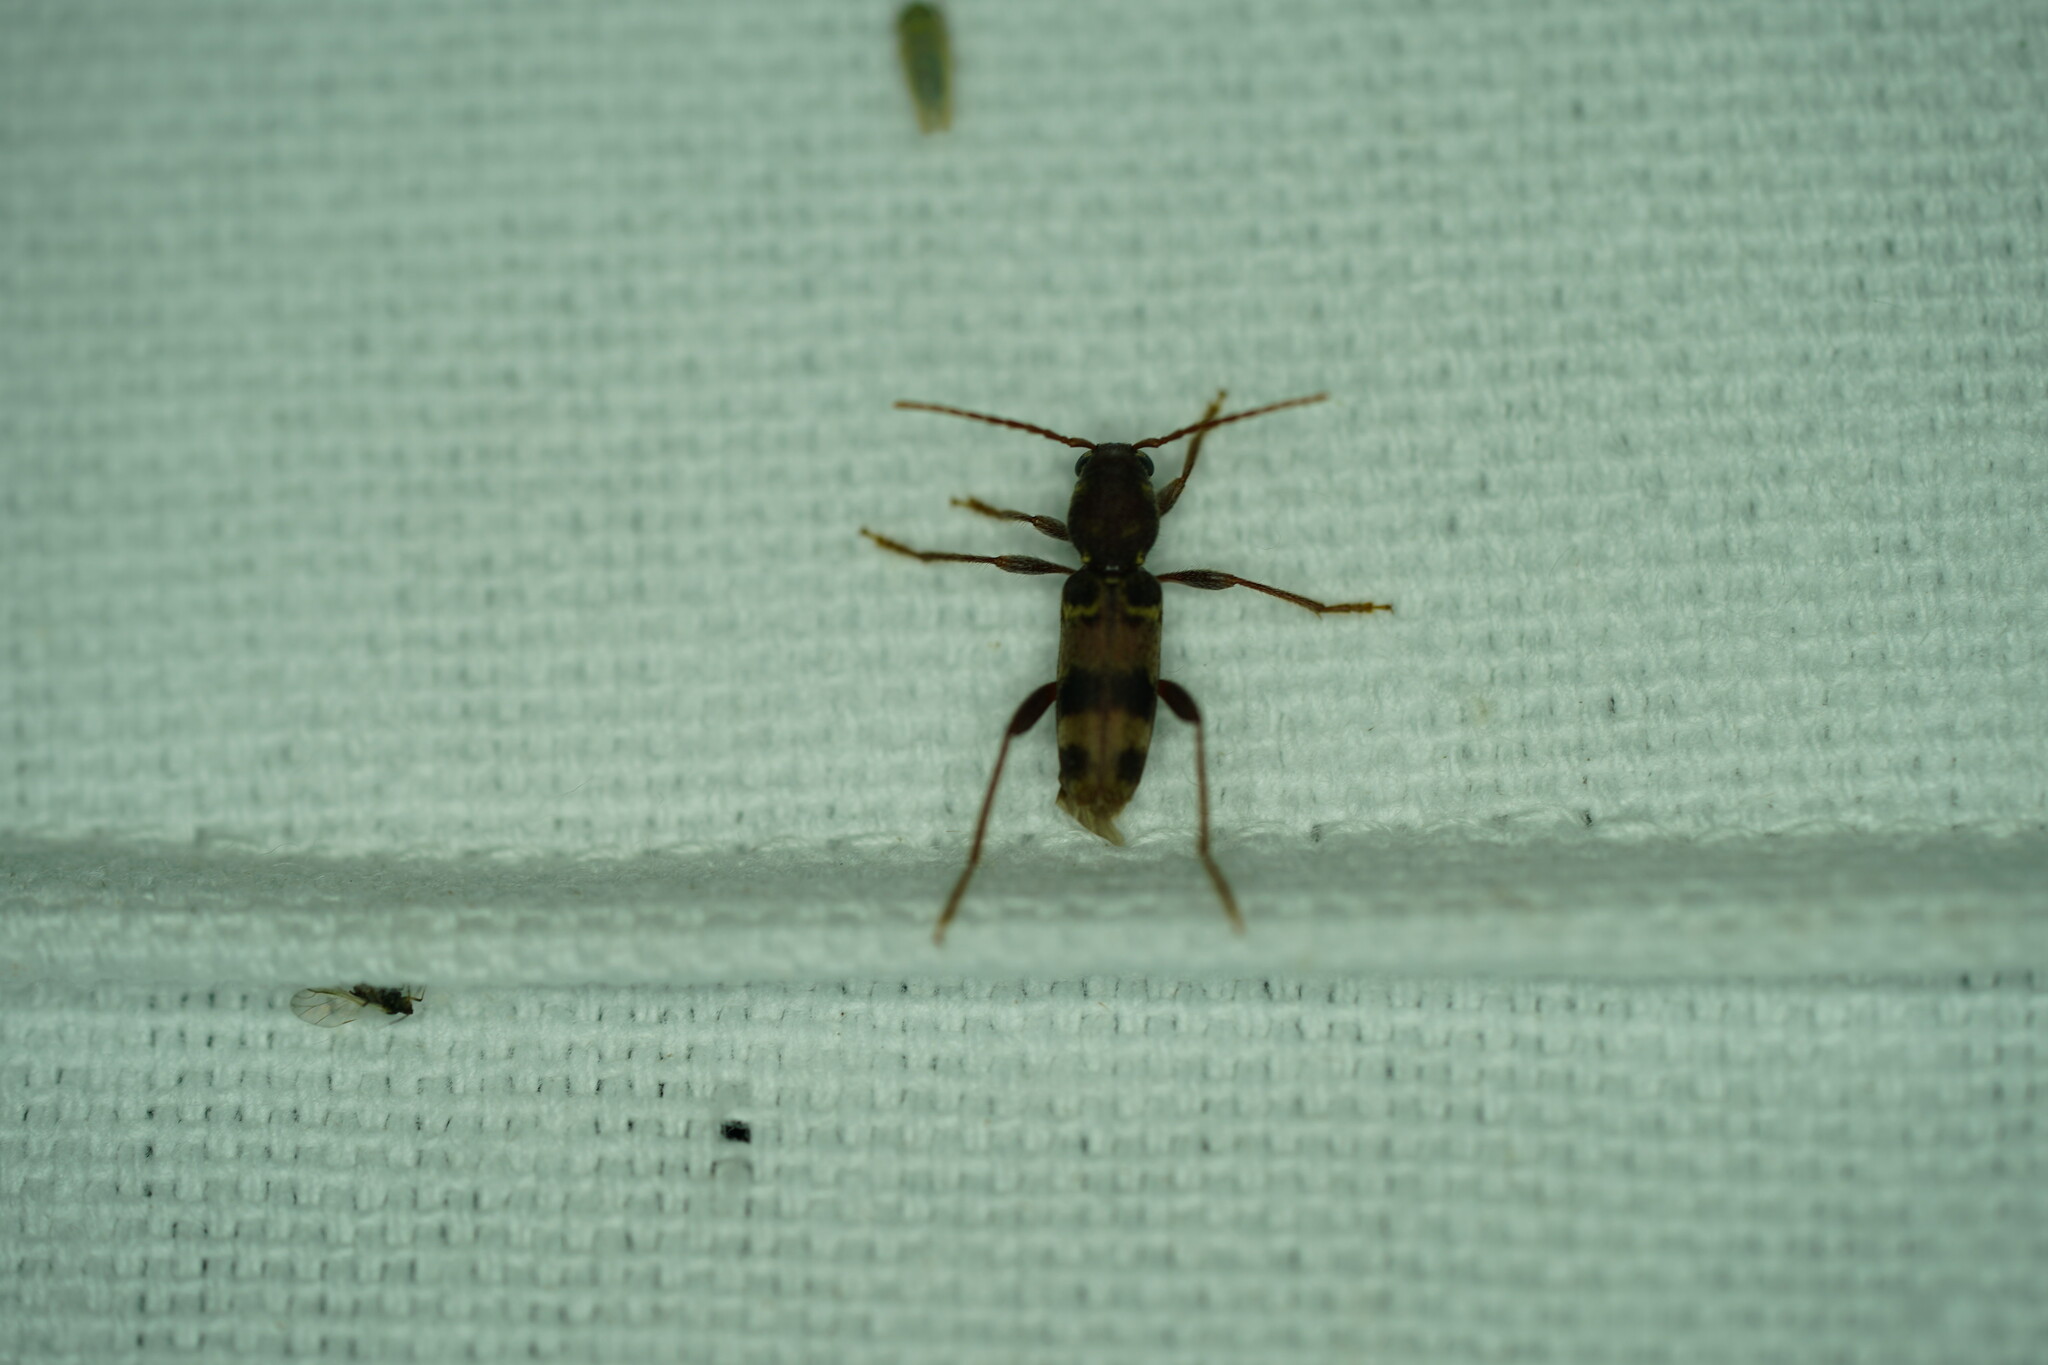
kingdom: Animalia
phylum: Arthropoda
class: Insecta
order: Coleoptera
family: Cerambycidae
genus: Xylotrechus
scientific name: Xylotrechus colonus
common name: Long-horned beetle
